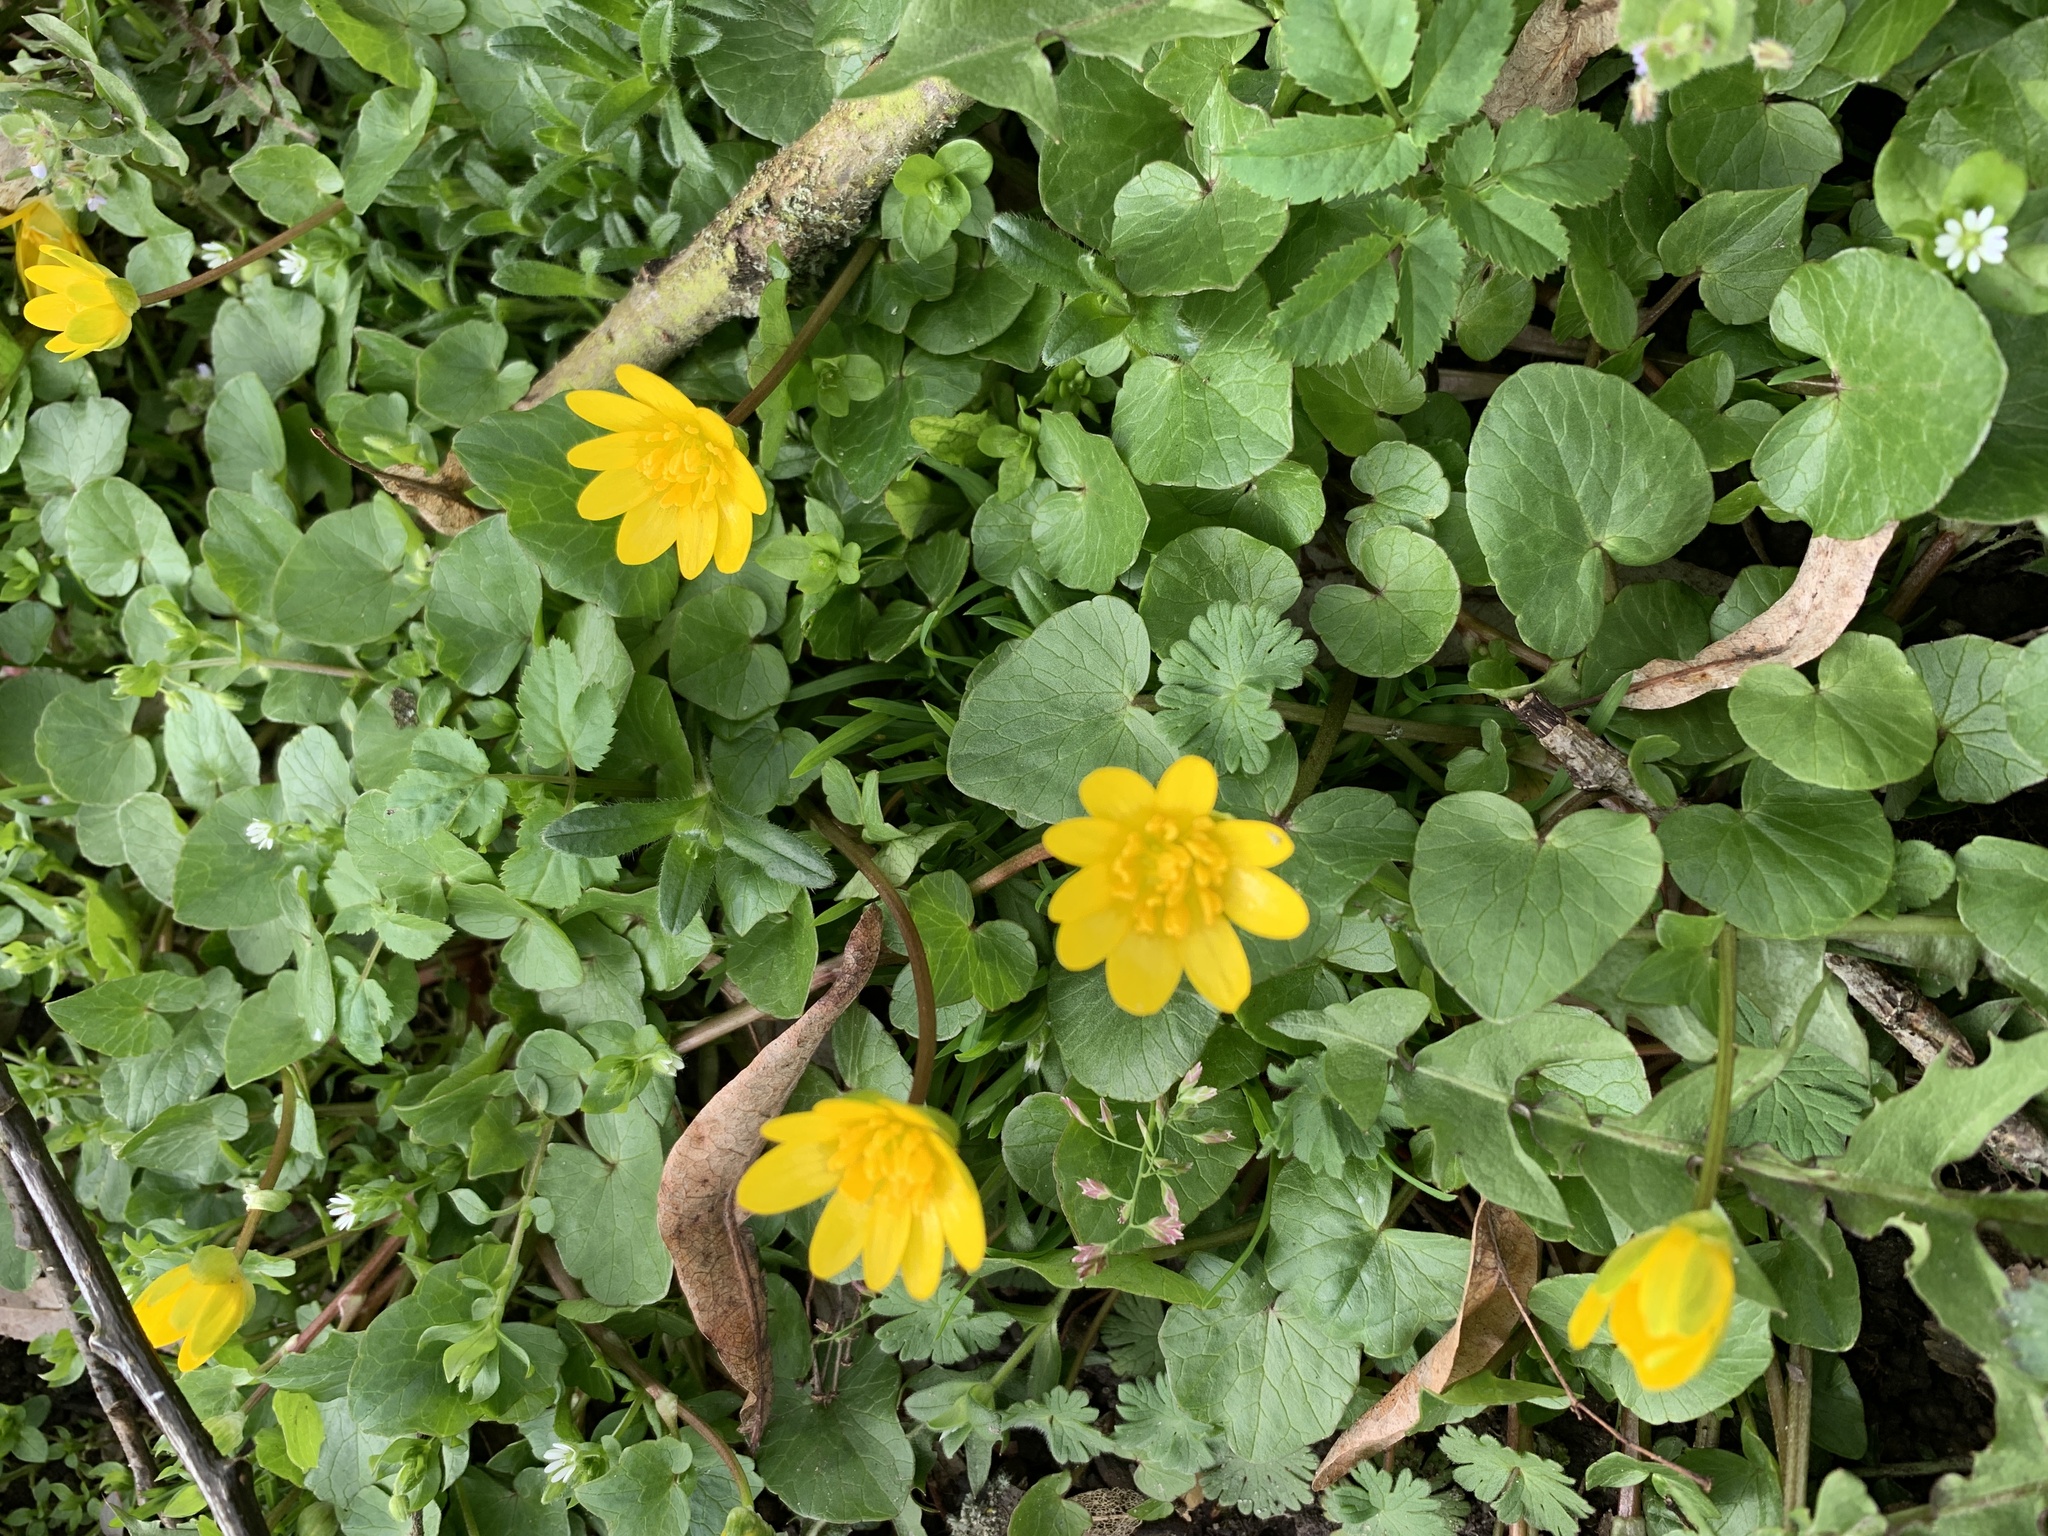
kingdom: Plantae
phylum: Tracheophyta
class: Magnoliopsida
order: Ranunculales
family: Ranunculaceae
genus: Ficaria
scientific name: Ficaria verna
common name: Lesser celandine
